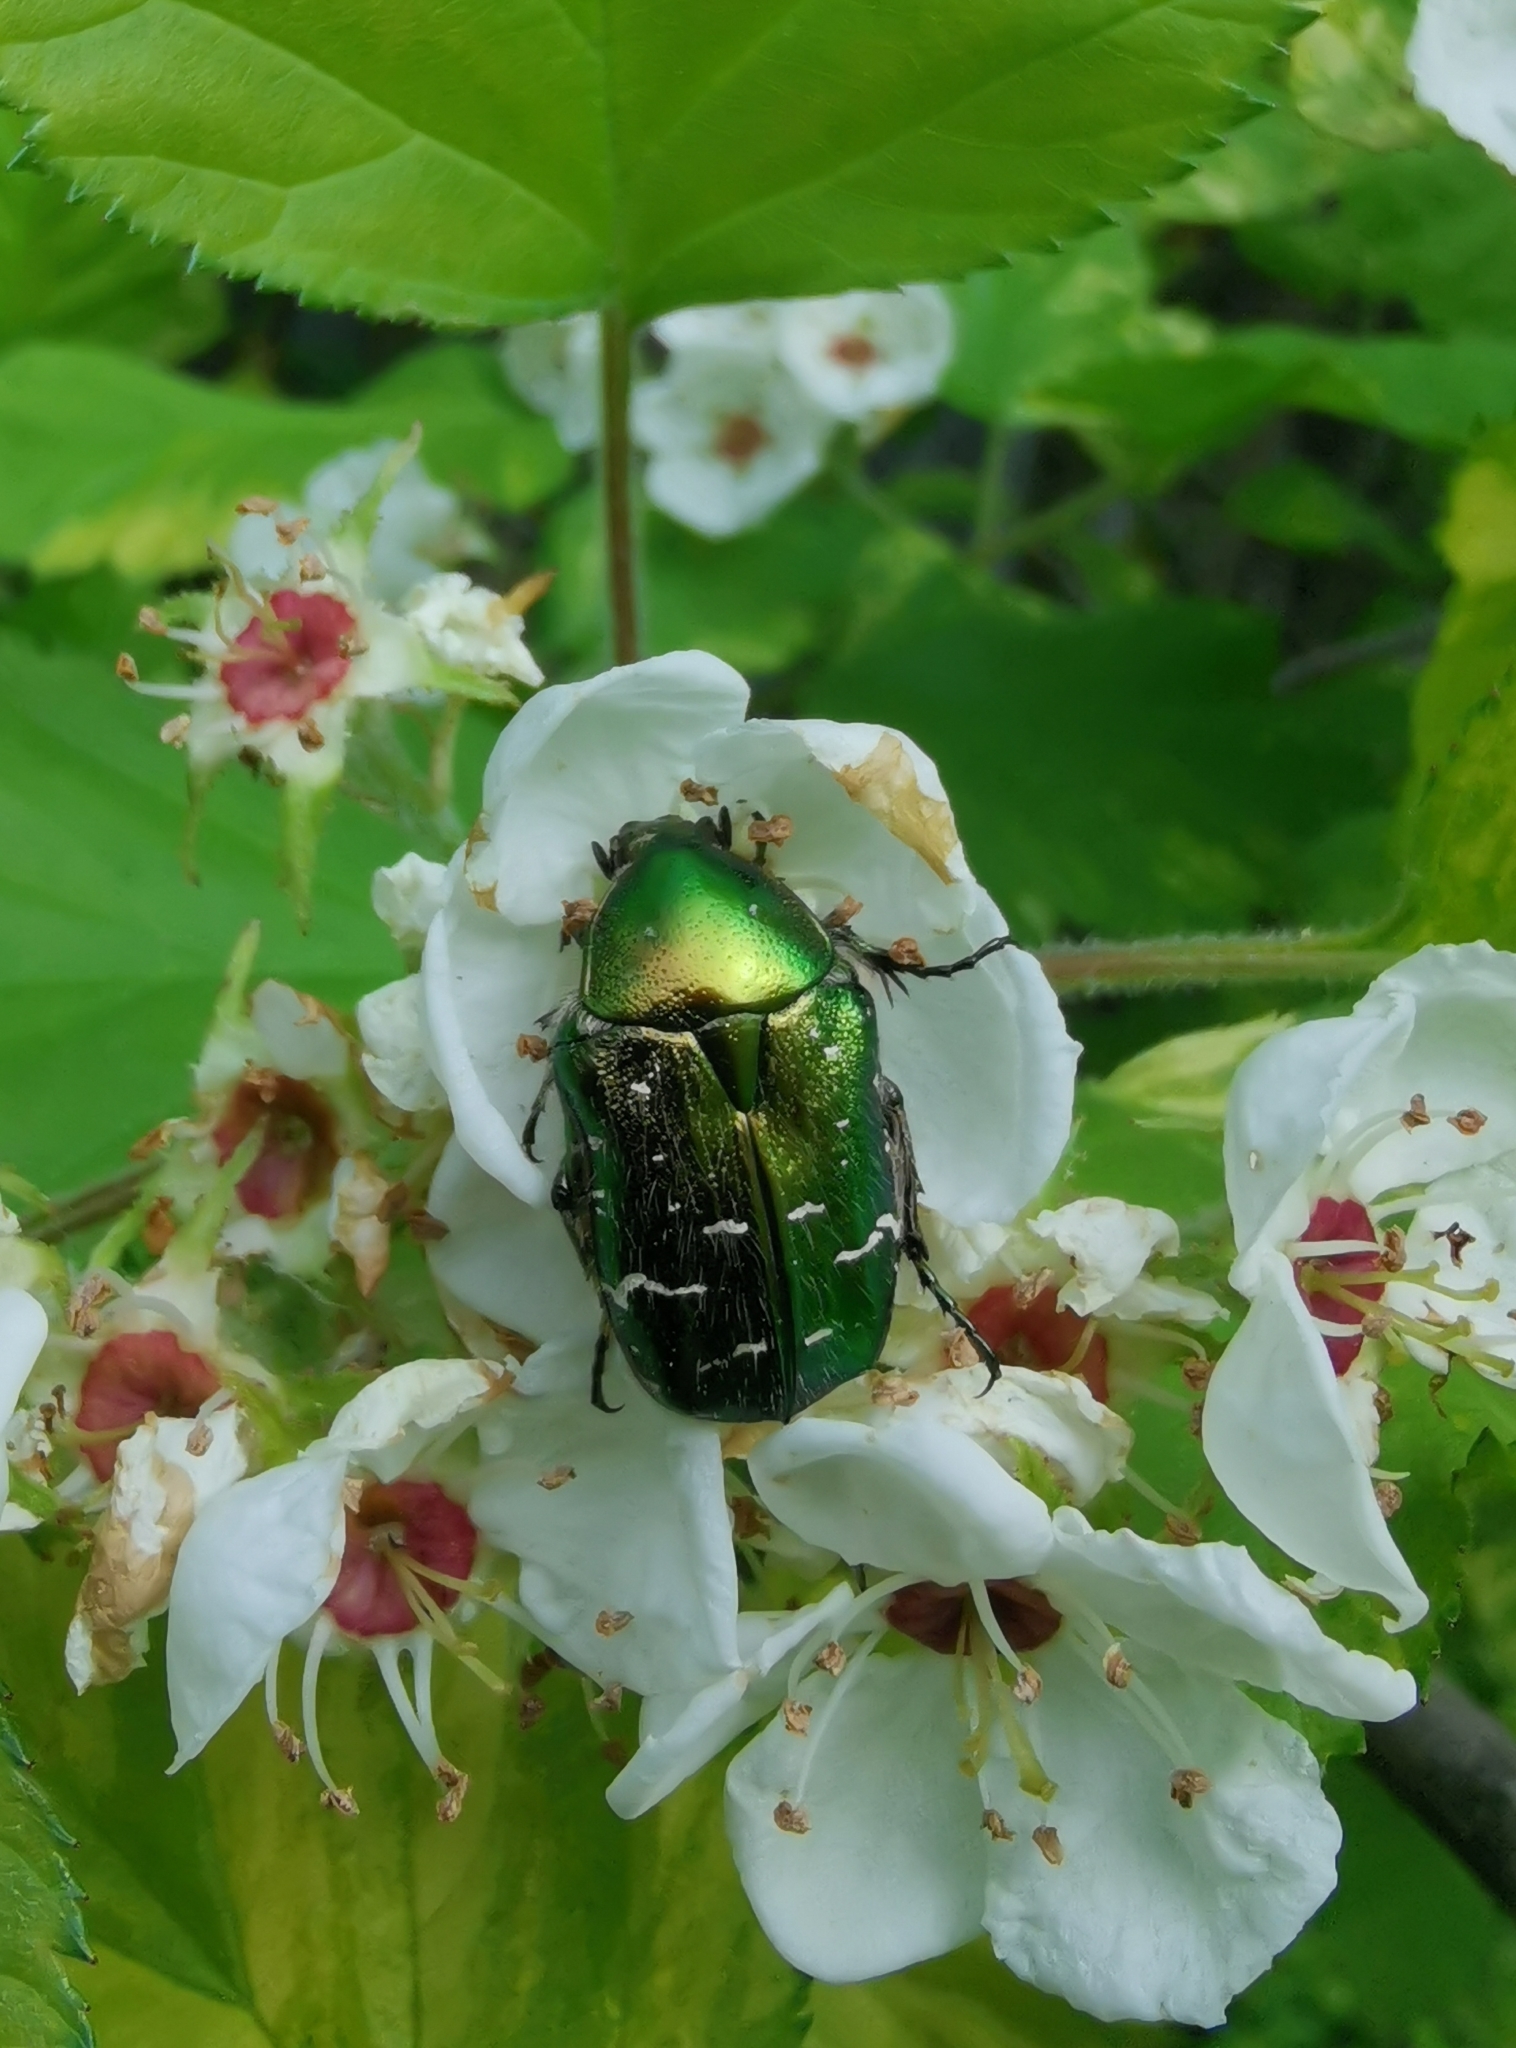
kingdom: Animalia
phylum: Arthropoda
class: Insecta
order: Coleoptera
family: Scarabaeidae
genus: Cetonia
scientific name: Cetonia aurata
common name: Rose chafer
